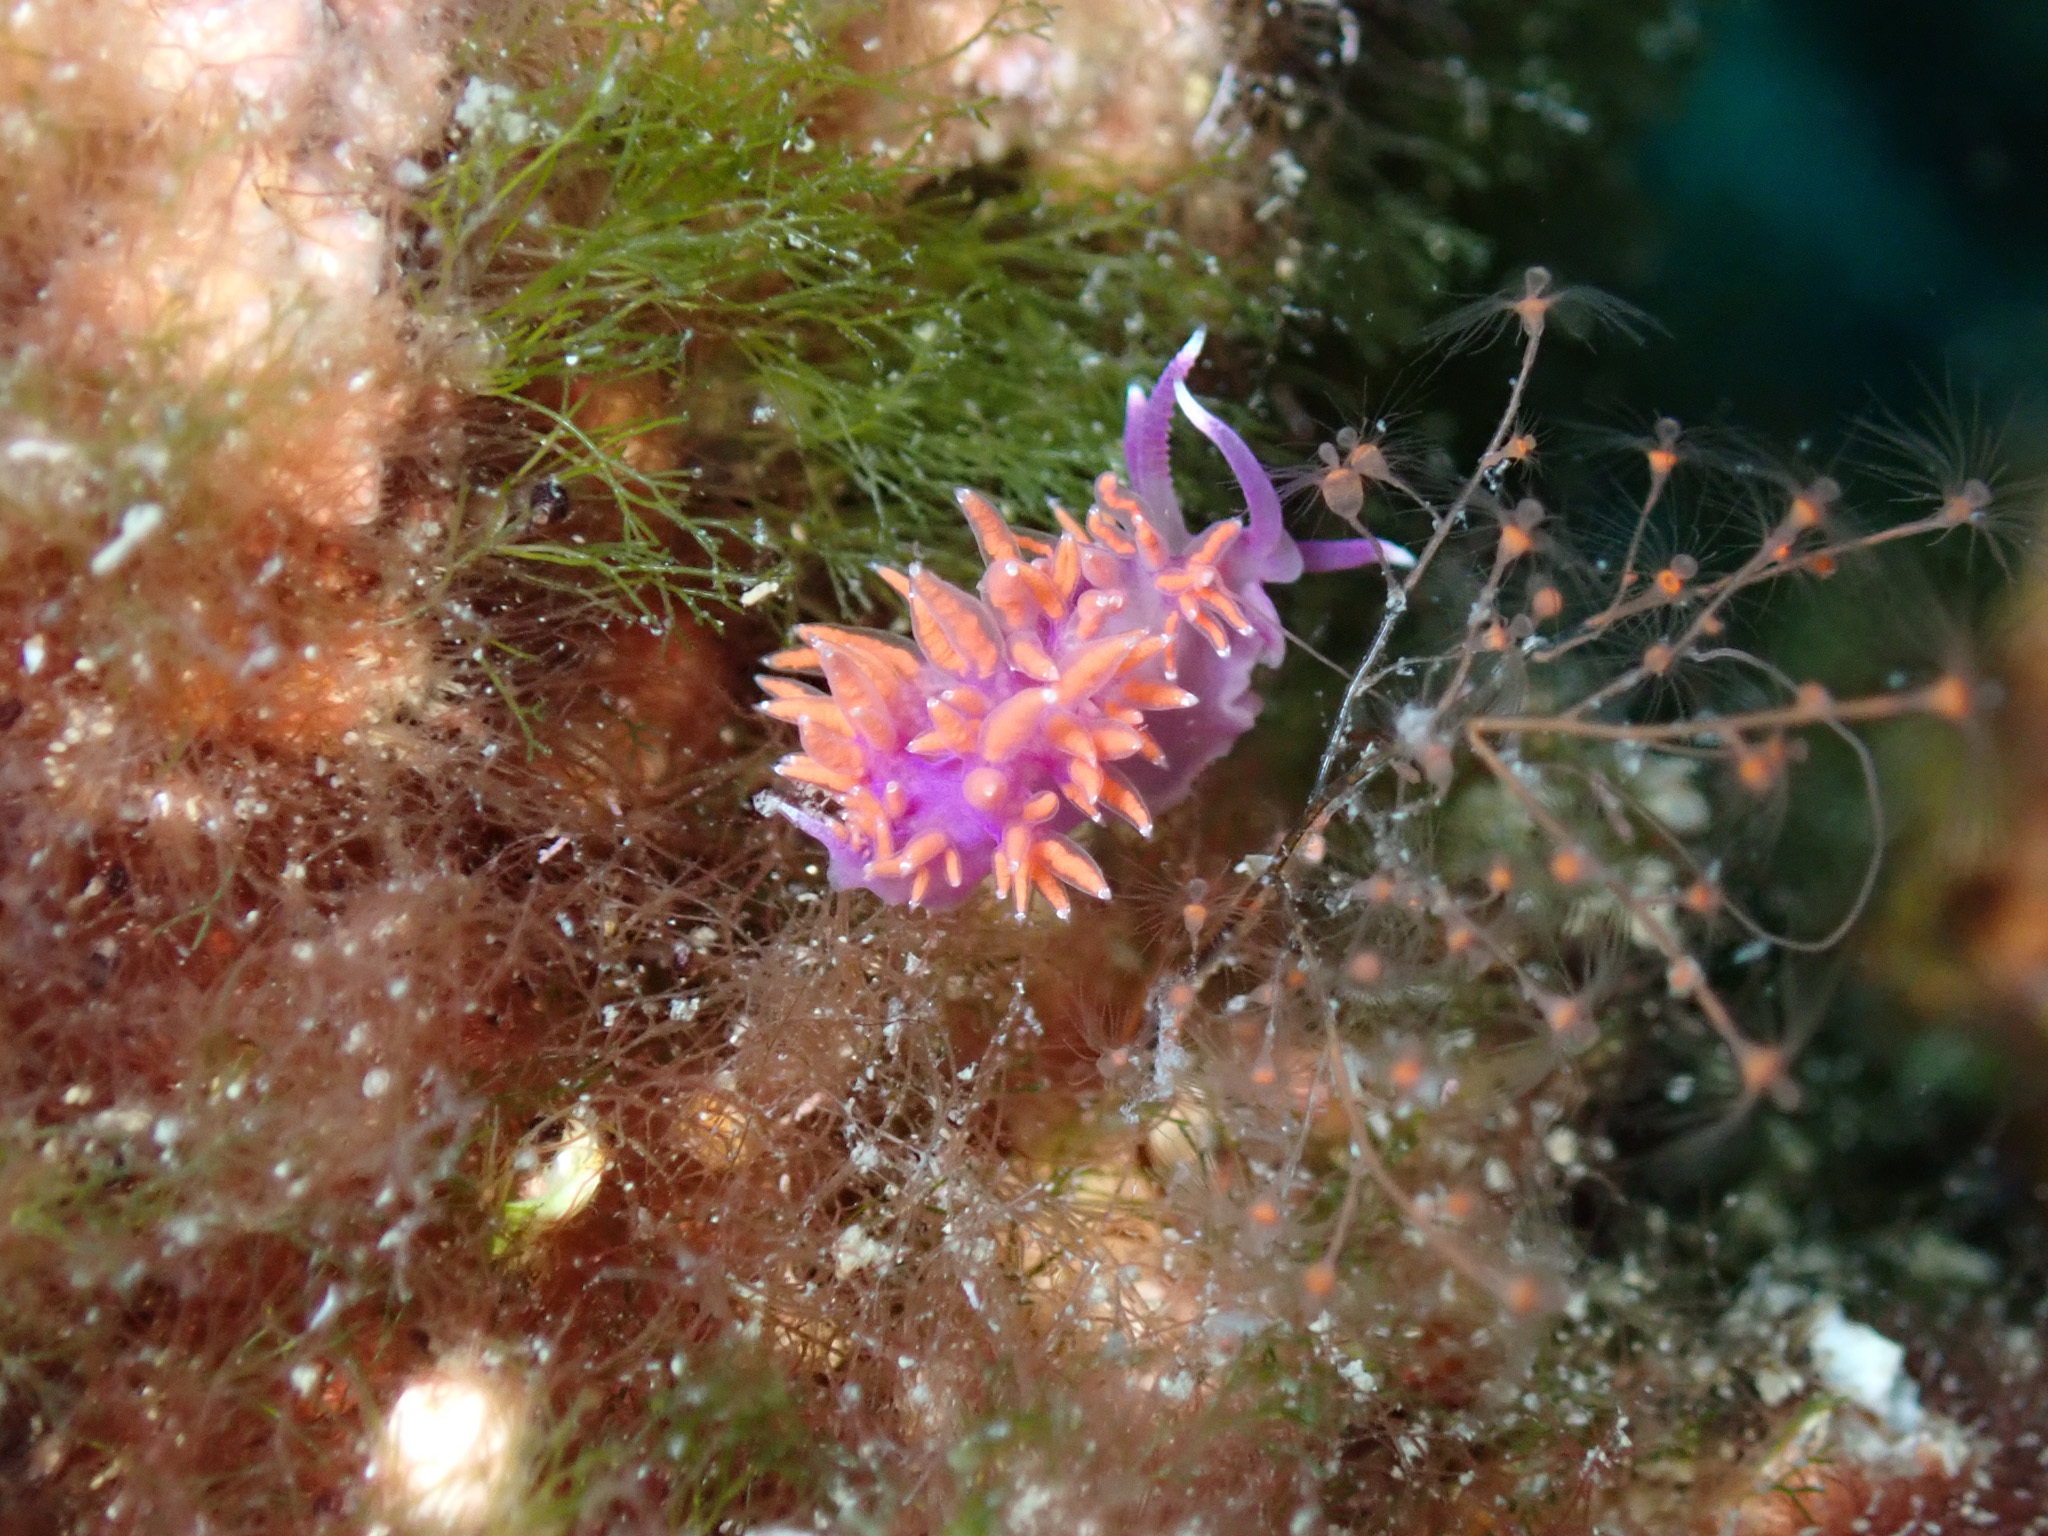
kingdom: Animalia
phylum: Mollusca
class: Gastropoda
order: Nudibranchia
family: Flabellinidae
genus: Paraflabellina
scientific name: Paraflabellina ischitana
